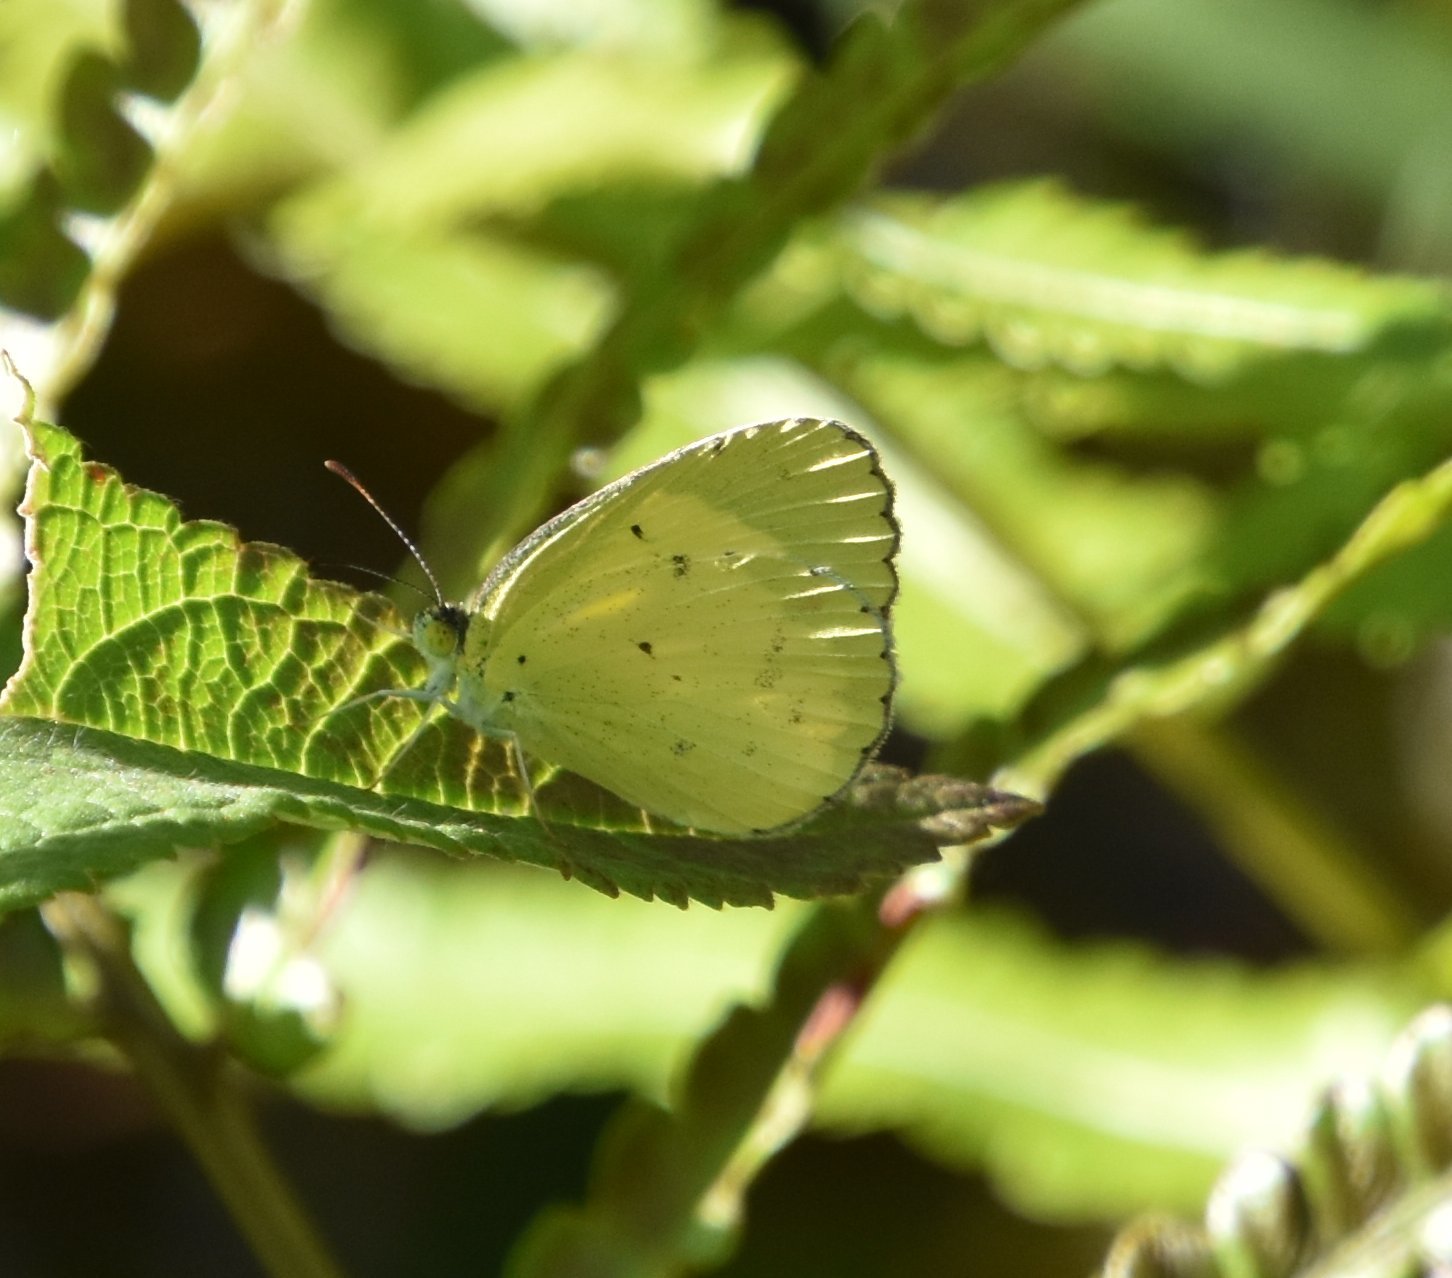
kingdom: Animalia
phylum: Arthropoda
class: Insecta
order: Lepidoptera
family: Pieridae
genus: Pyrisitia
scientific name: Pyrisitia lisa
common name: Little yellow
